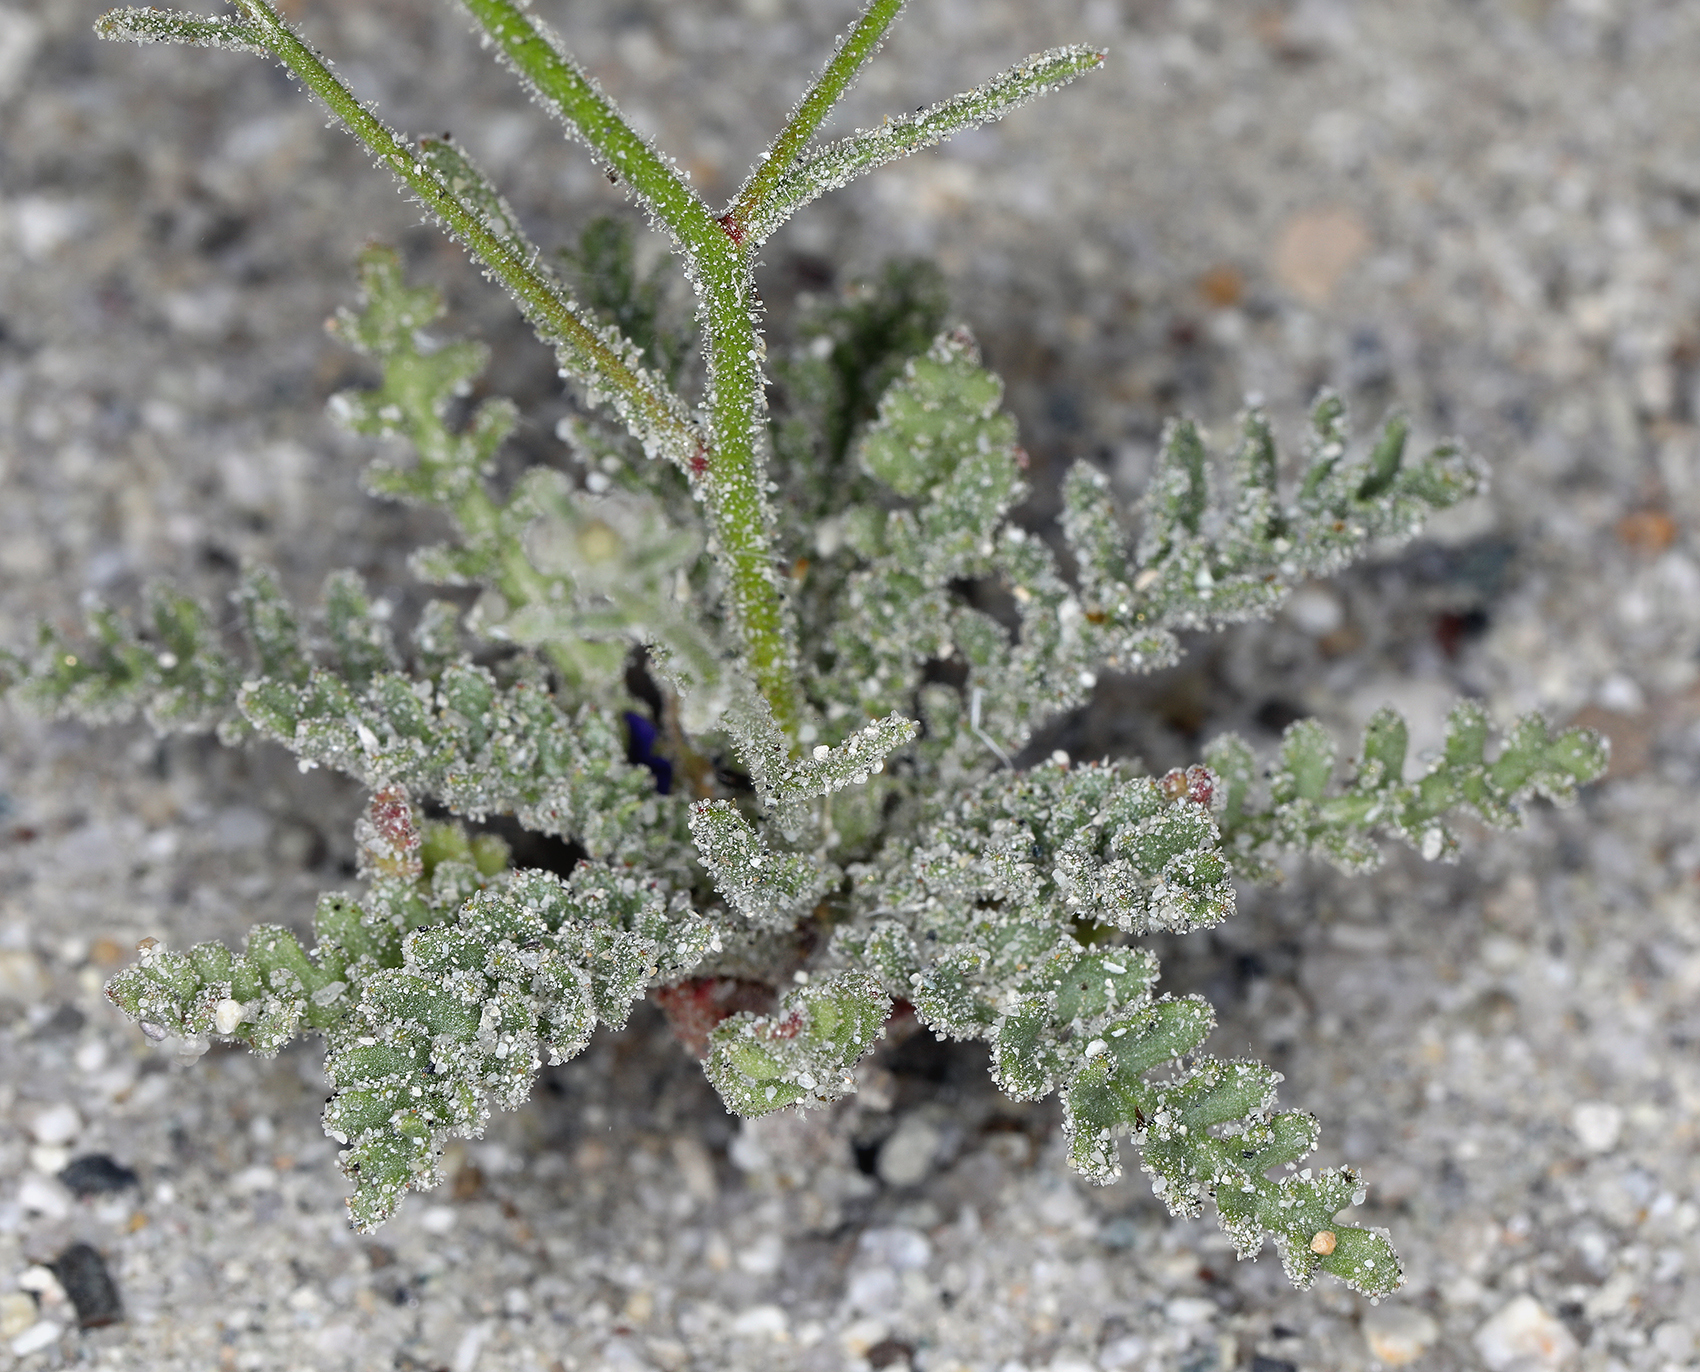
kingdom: Plantae
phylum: Tracheophyta
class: Magnoliopsida
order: Ericales
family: Polemoniaceae
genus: Aliciella
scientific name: Aliciella hutchinsifolia
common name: Desert pale gilia
